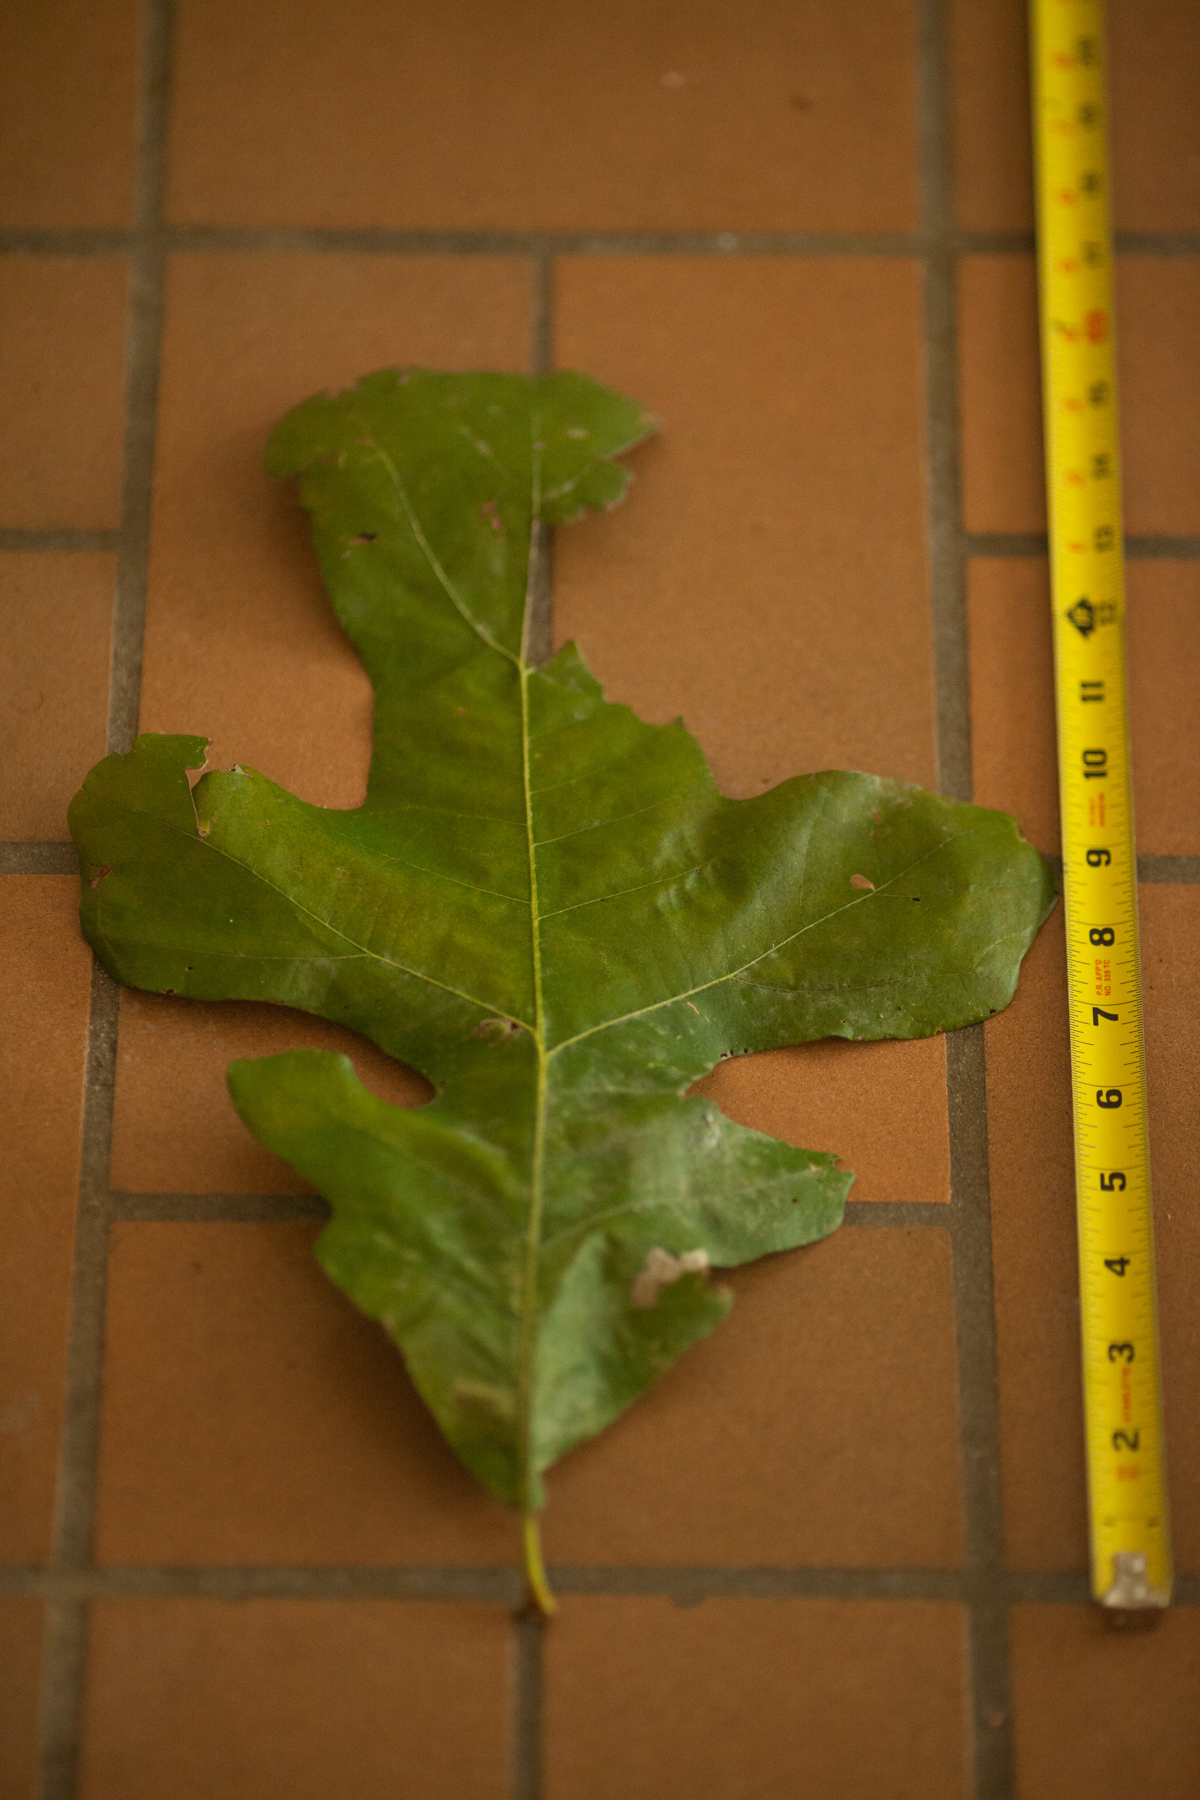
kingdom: Plantae
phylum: Tracheophyta
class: Magnoliopsida
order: Fagales
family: Fagaceae
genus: Quercus
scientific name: Quercus stellata
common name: Post oak
